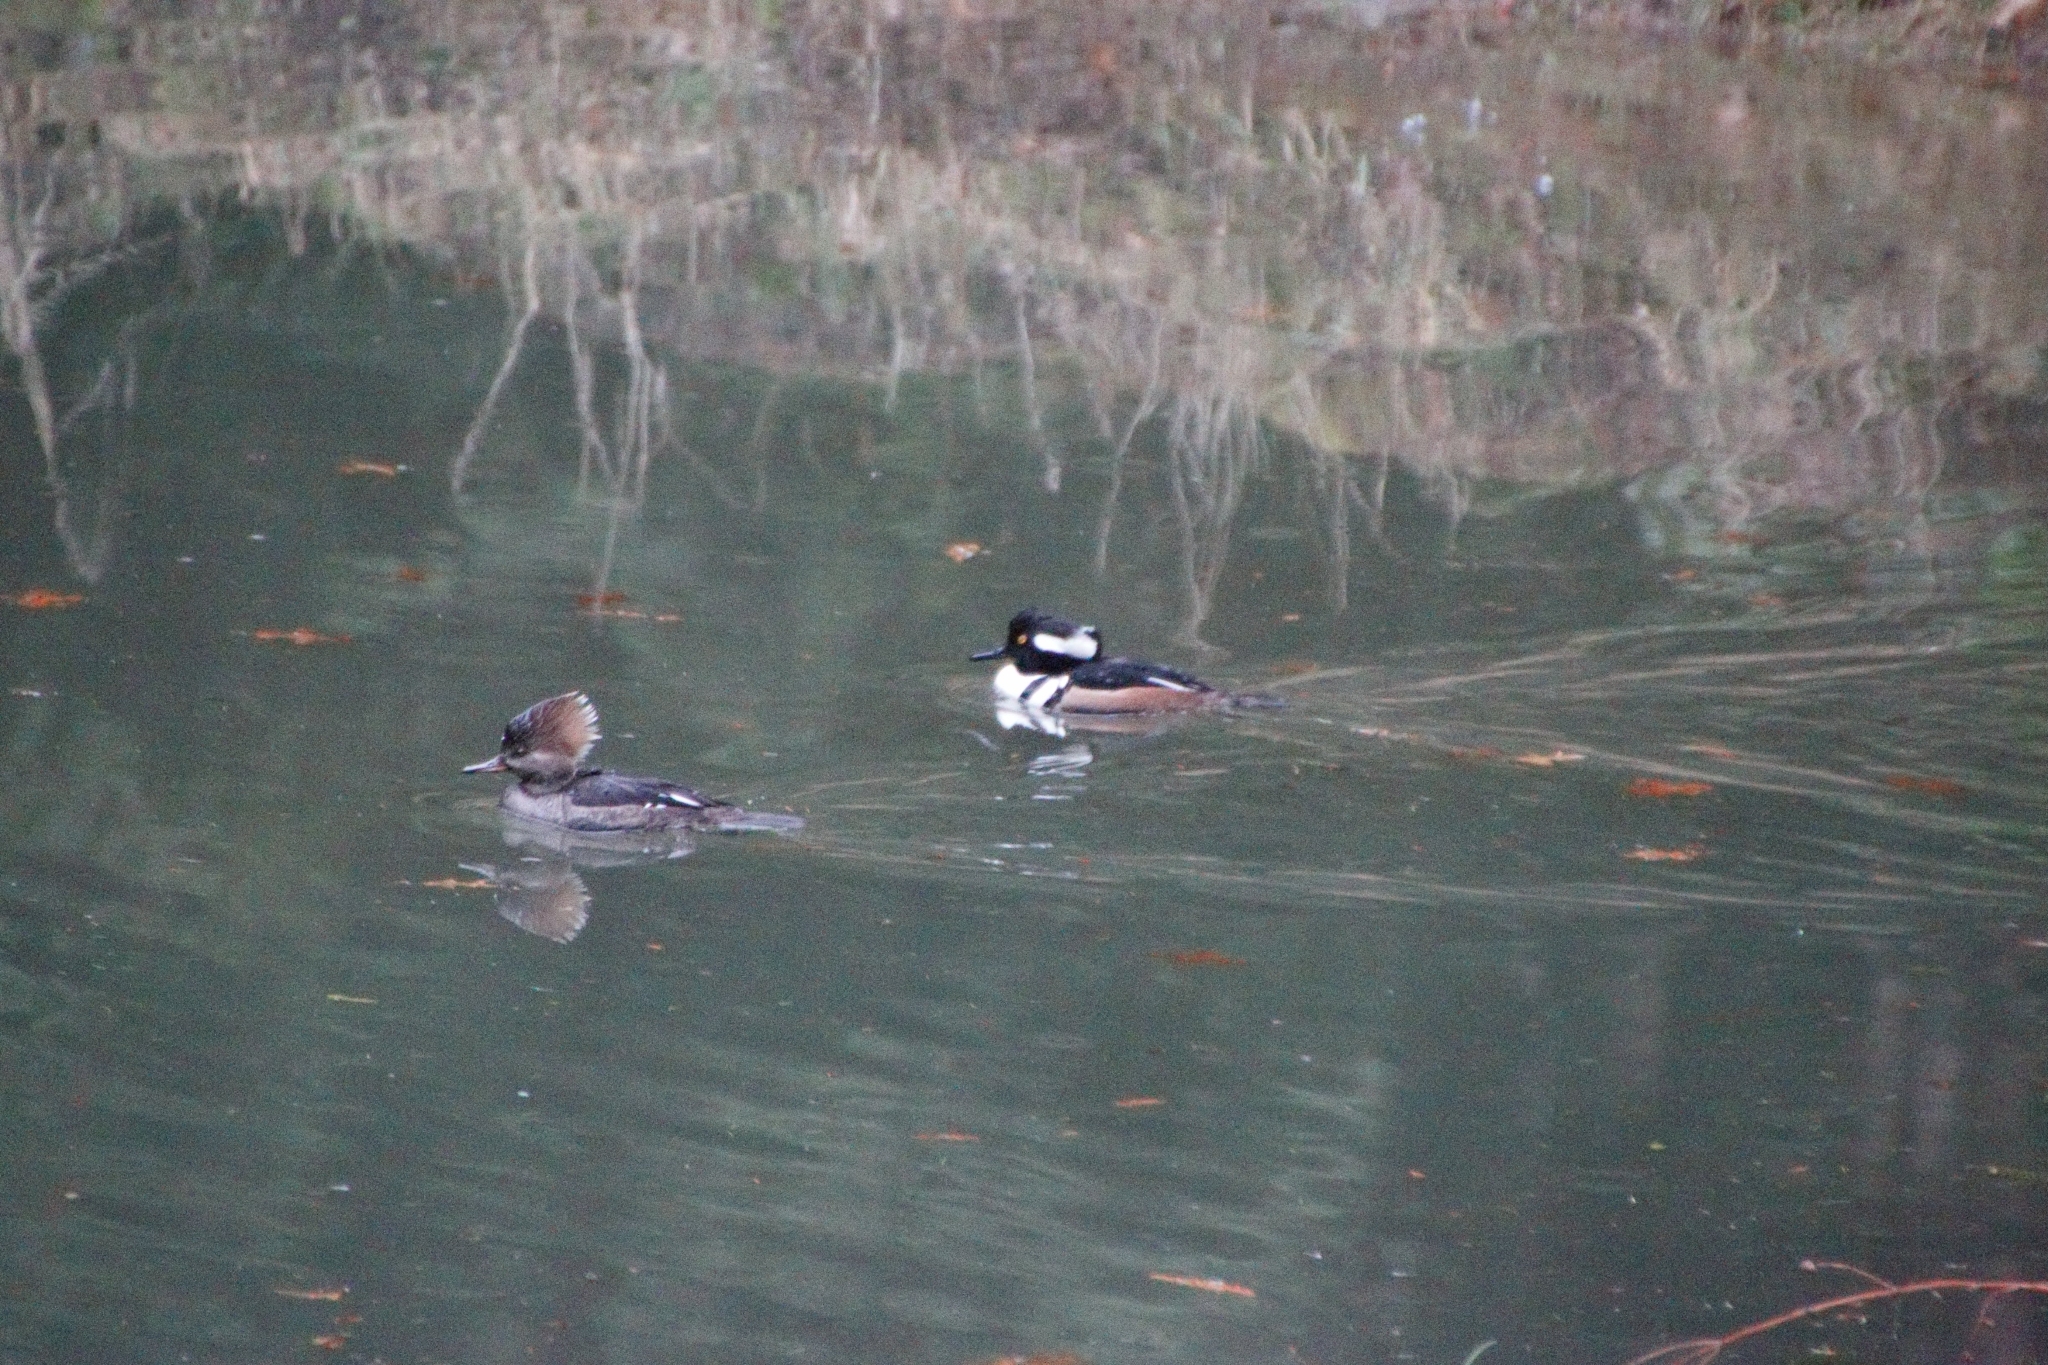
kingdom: Animalia
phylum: Chordata
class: Aves
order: Anseriformes
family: Anatidae
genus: Lophodytes
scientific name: Lophodytes cucullatus
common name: Hooded merganser
